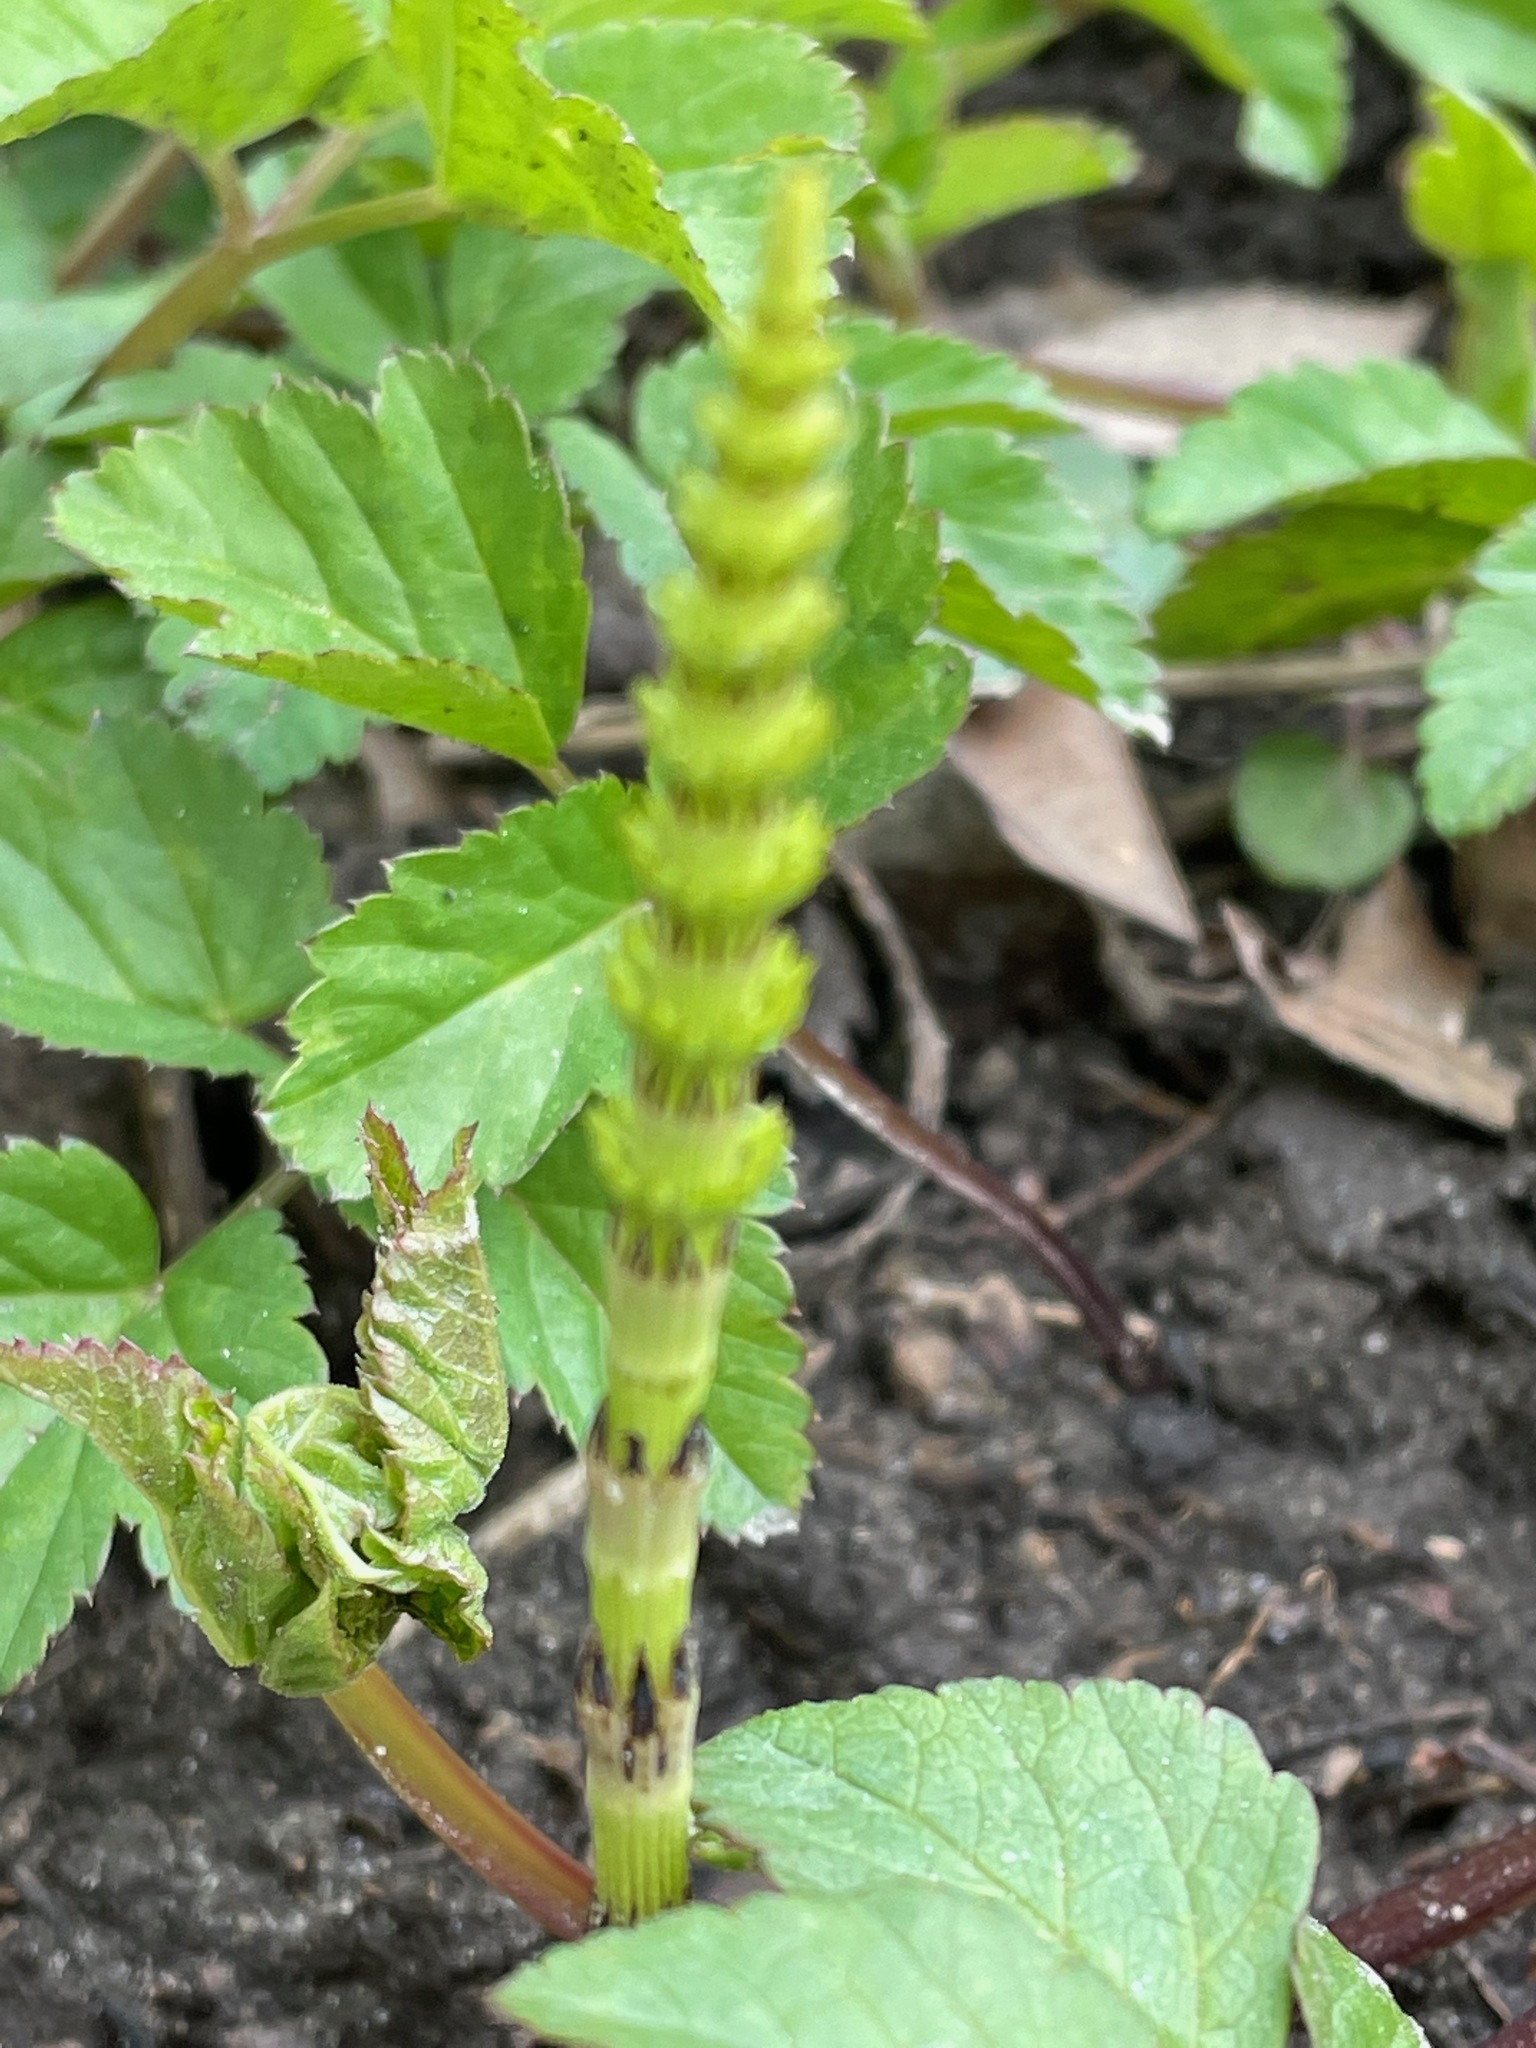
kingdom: Plantae
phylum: Tracheophyta
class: Polypodiopsida
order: Equisetales
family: Equisetaceae
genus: Equisetum
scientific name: Equisetum arvense
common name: Field horsetail
